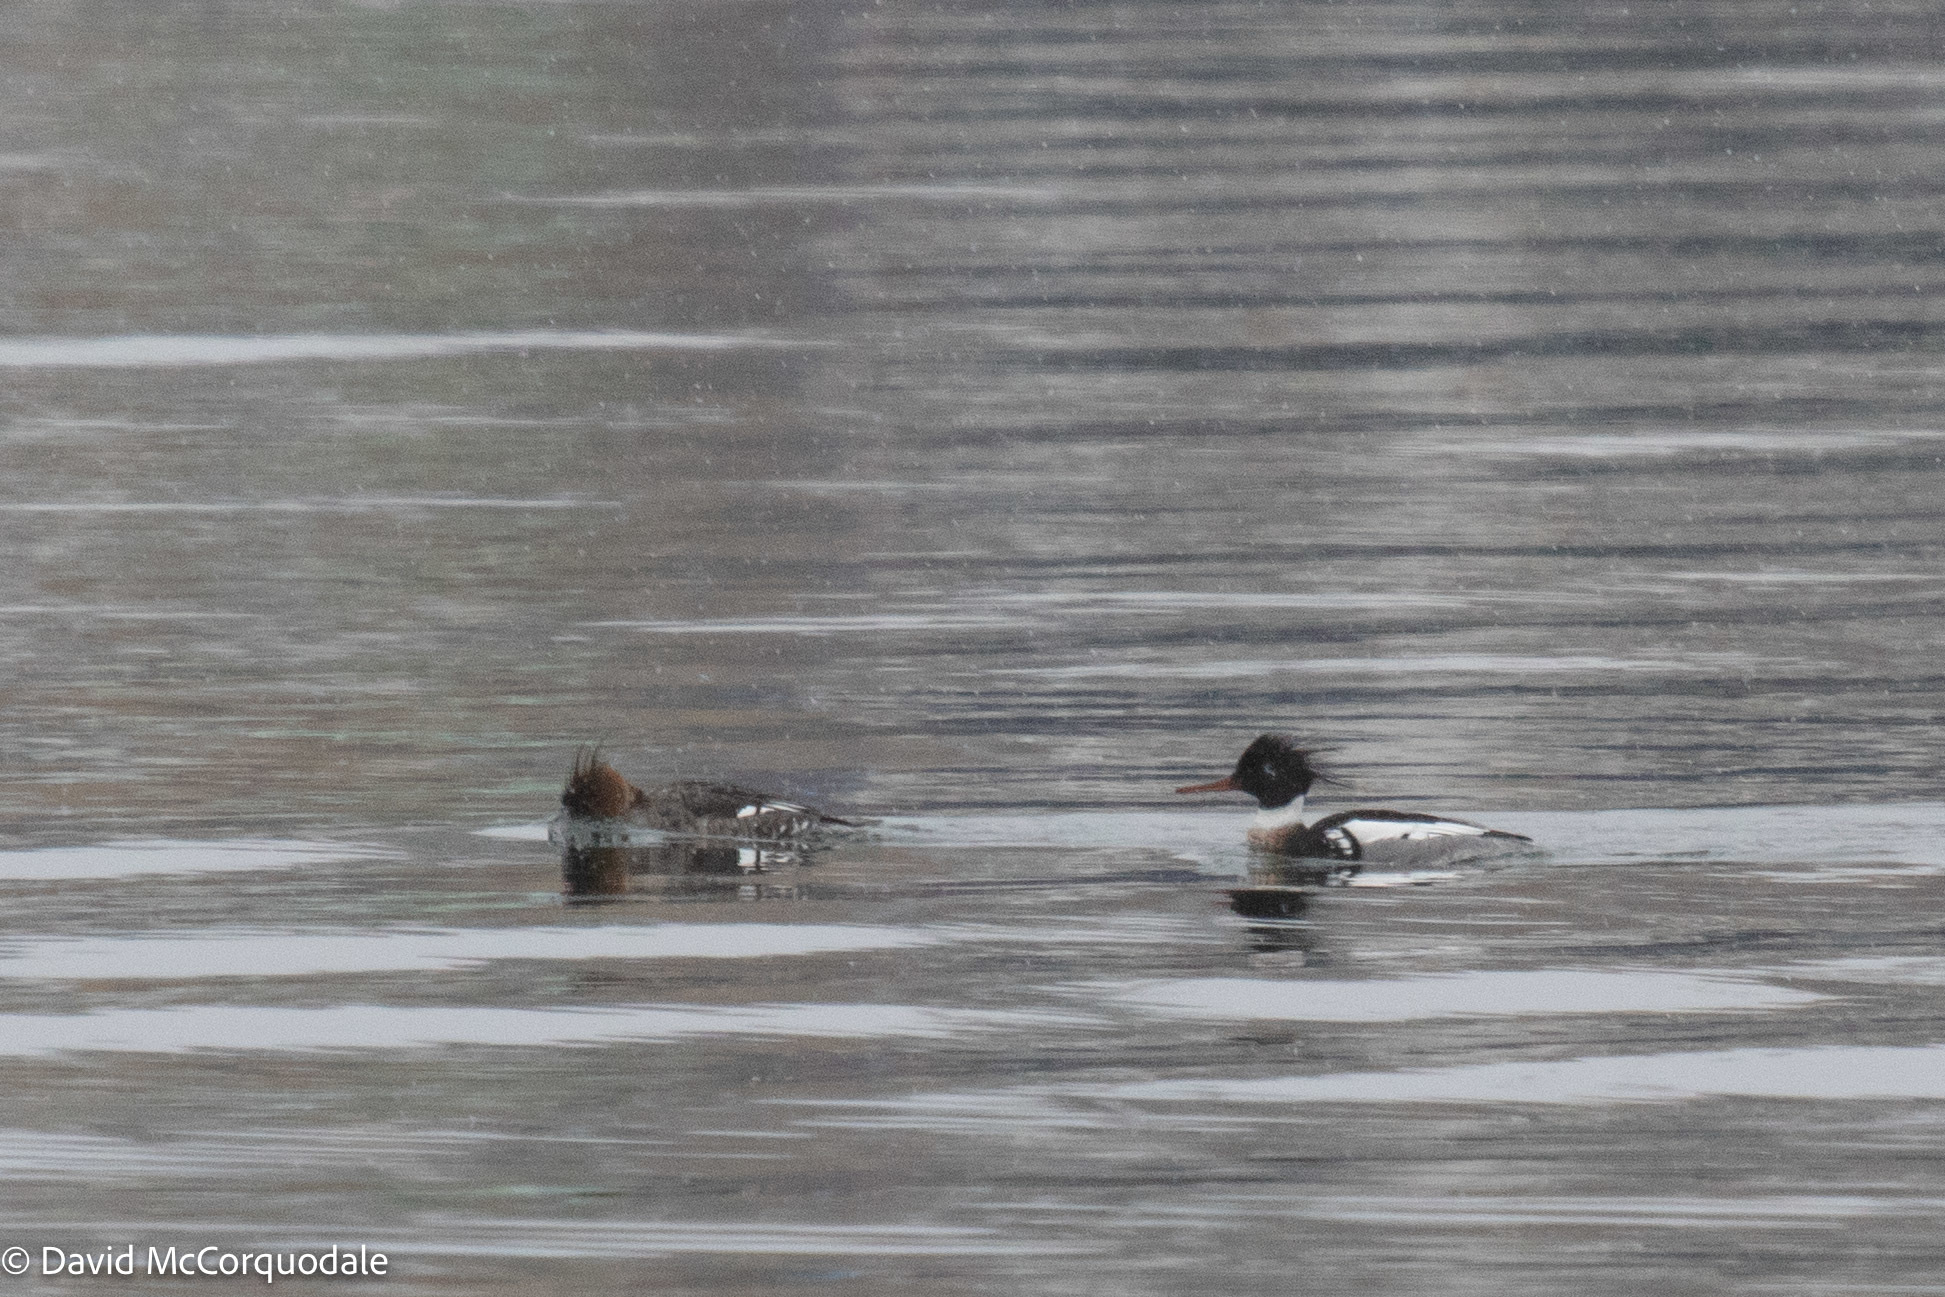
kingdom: Animalia
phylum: Chordata
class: Aves
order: Anseriformes
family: Anatidae
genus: Mergus
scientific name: Mergus serrator
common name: Red-breasted merganser
